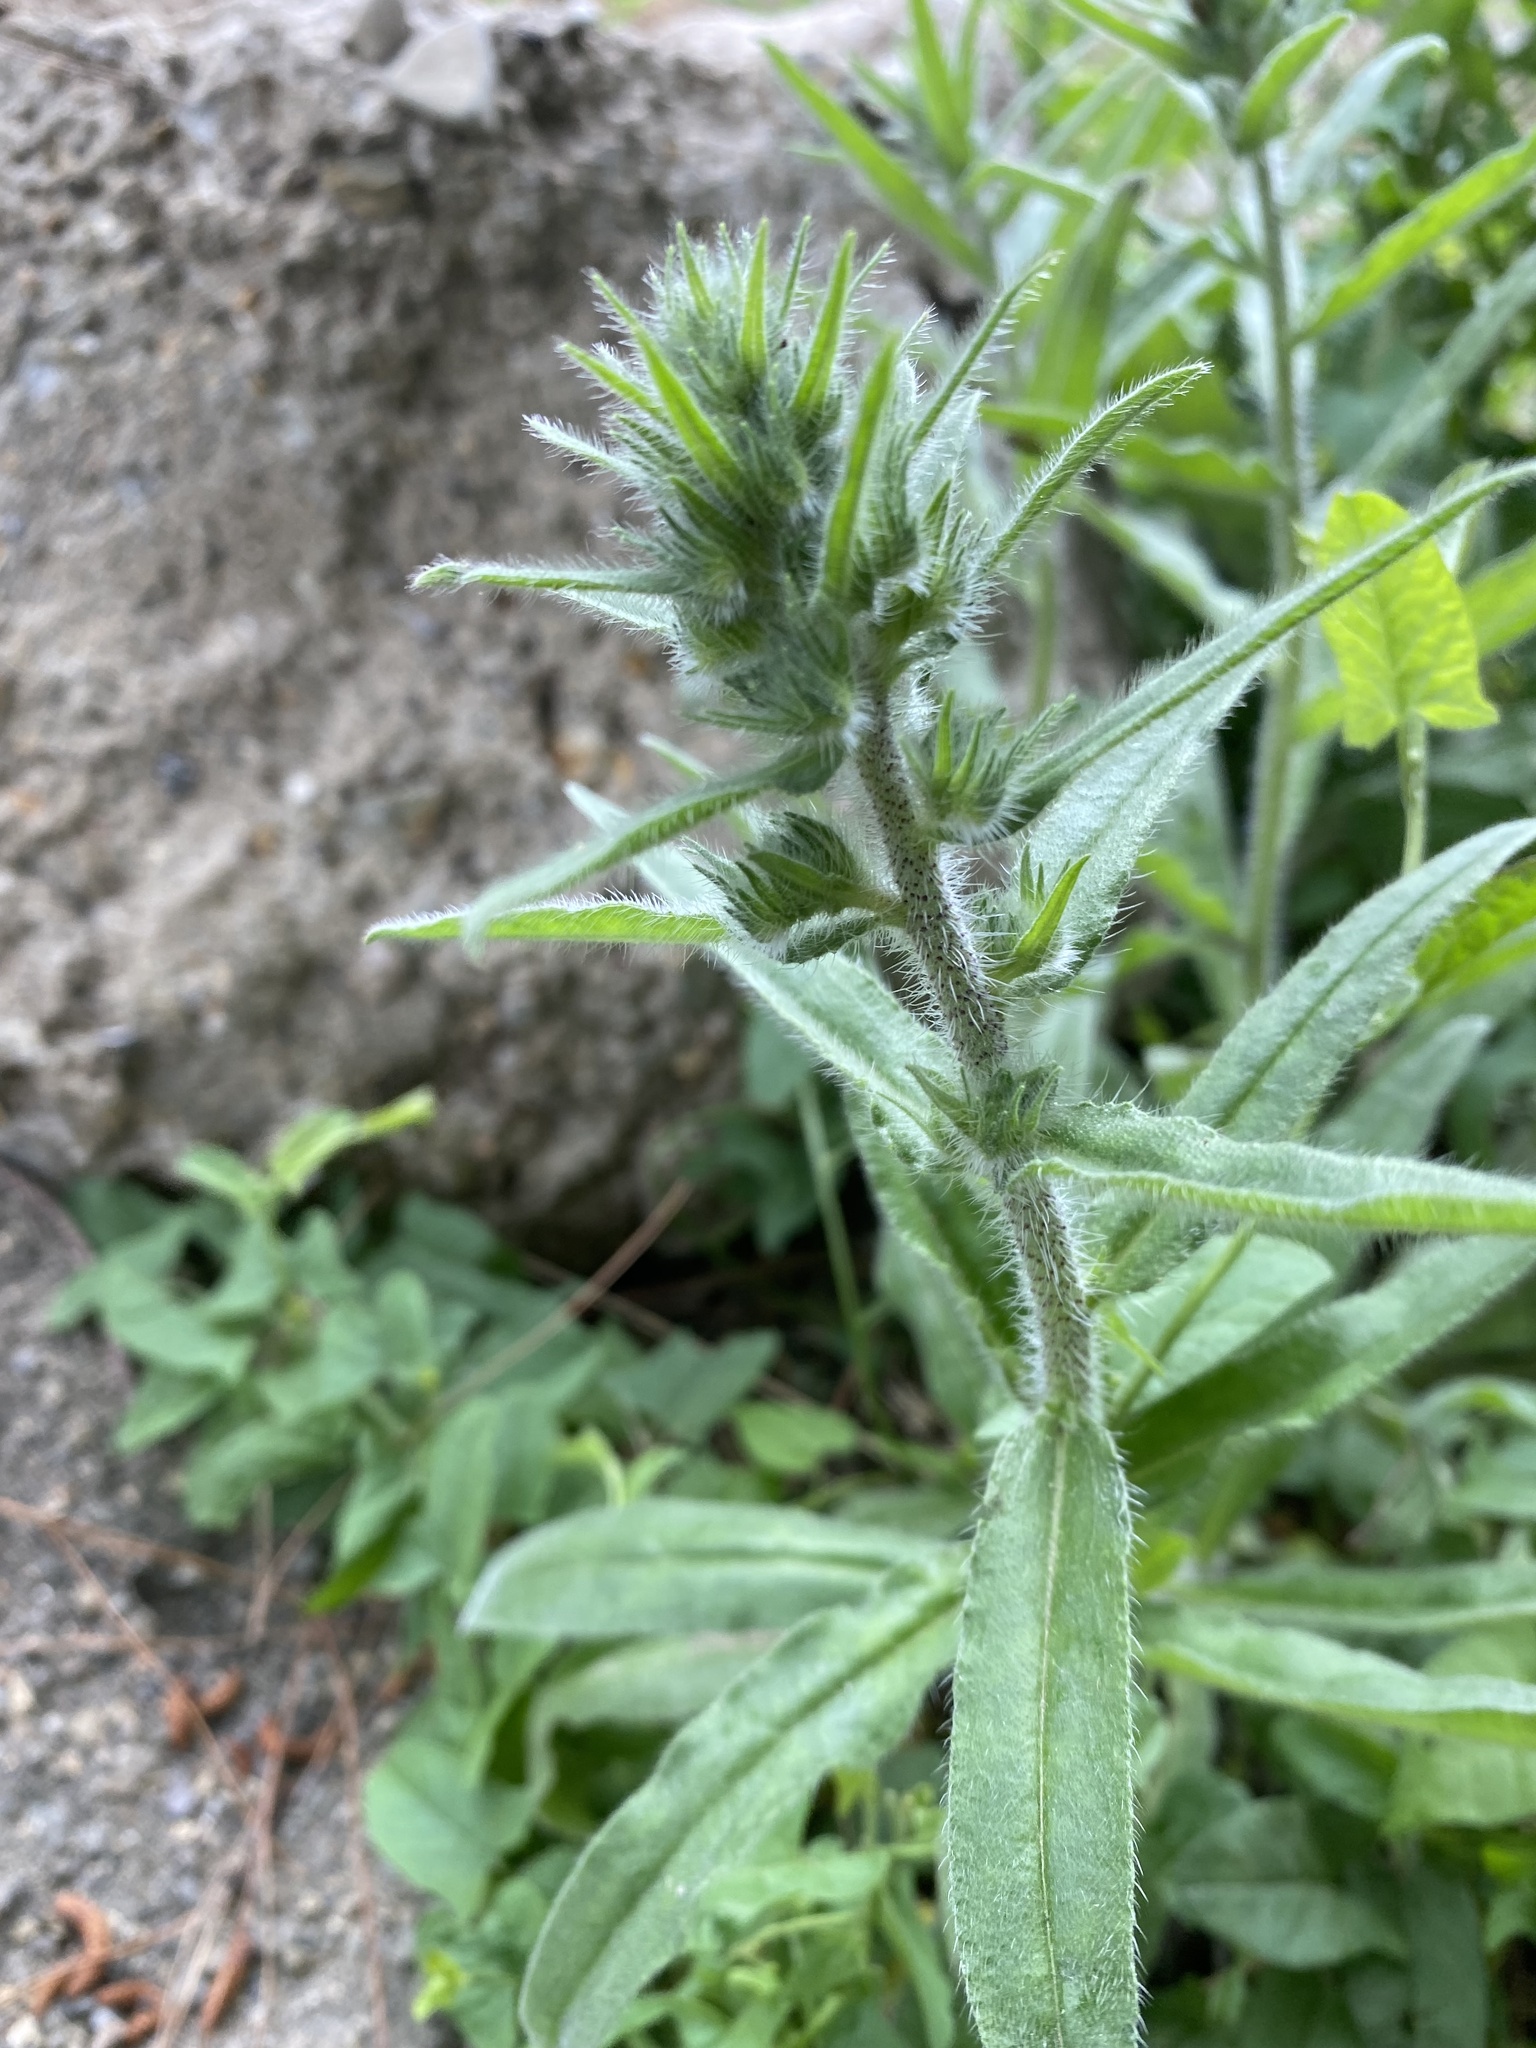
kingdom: Plantae
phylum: Tracheophyta
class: Magnoliopsida
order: Boraginales
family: Boraginaceae
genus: Echium
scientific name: Echium vulgare
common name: Common viper's bugloss
